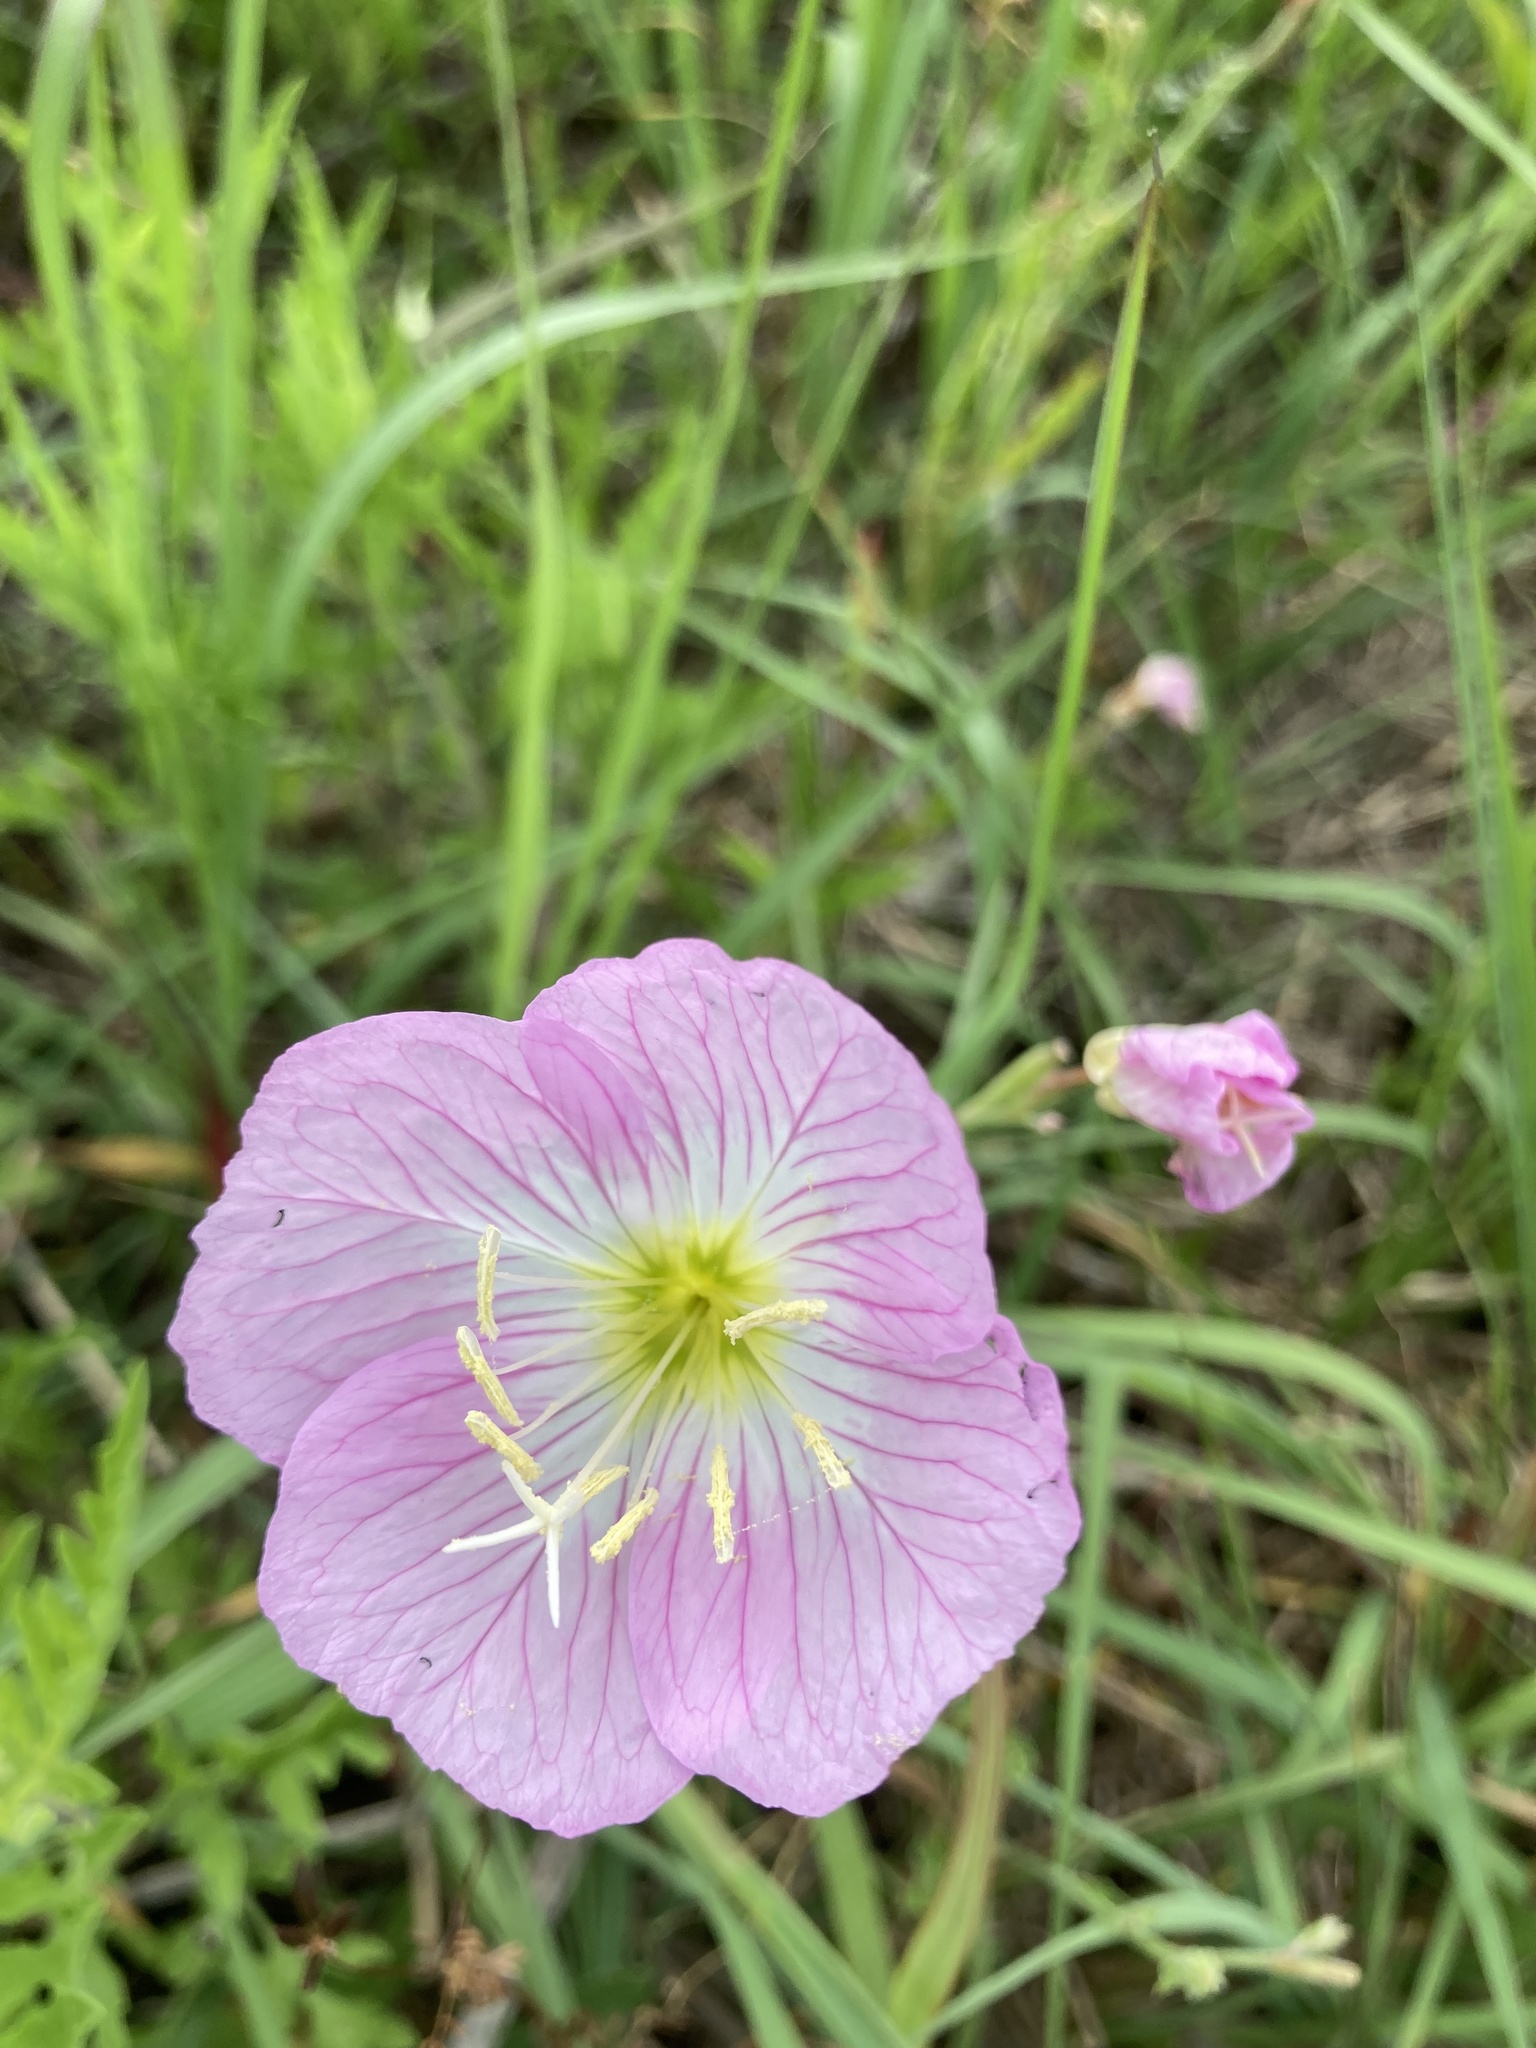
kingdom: Plantae
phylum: Tracheophyta
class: Magnoliopsida
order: Myrtales
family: Onagraceae
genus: Oenothera
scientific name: Oenothera speciosa
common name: White evening-primrose
